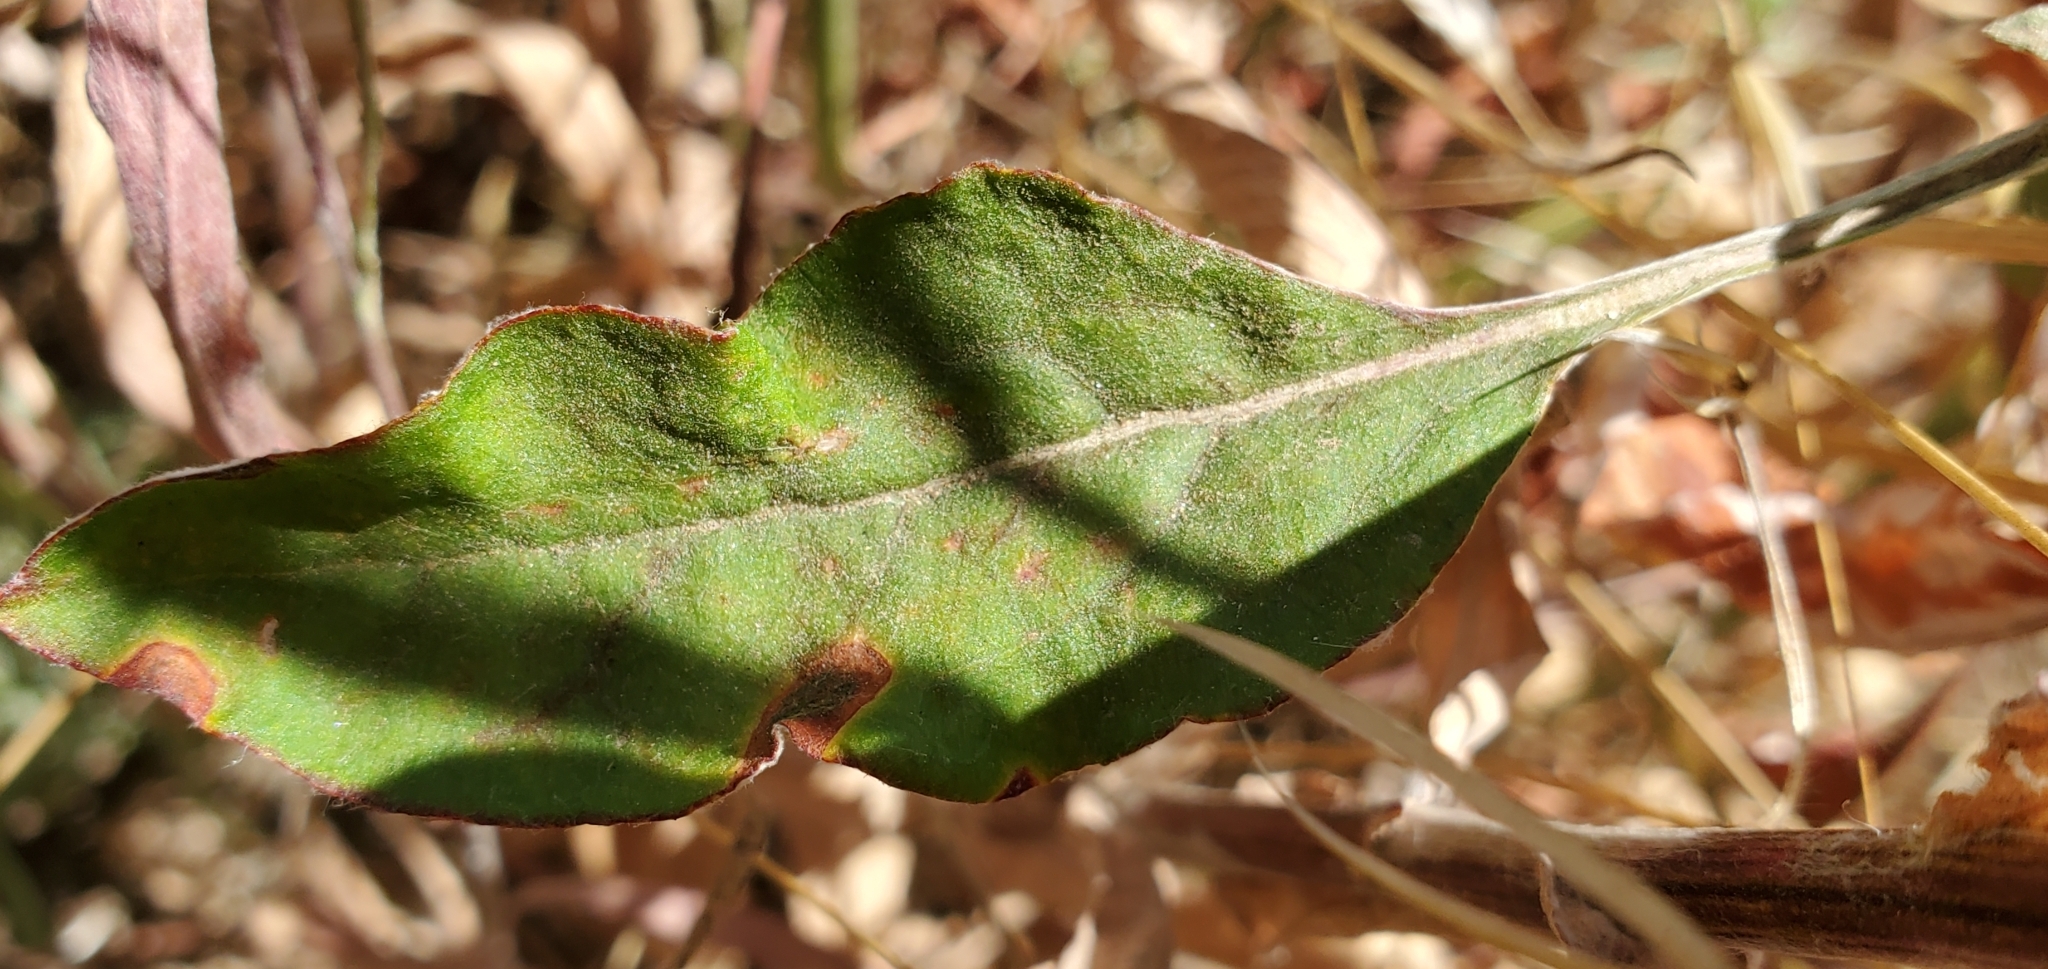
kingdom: Plantae
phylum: Tracheophyta
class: Magnoliopsida
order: Caryophyllales
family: Polygonaceae
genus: Eriogonum
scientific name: Eriogonum elongatum
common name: Long-stem wild buckwheat
